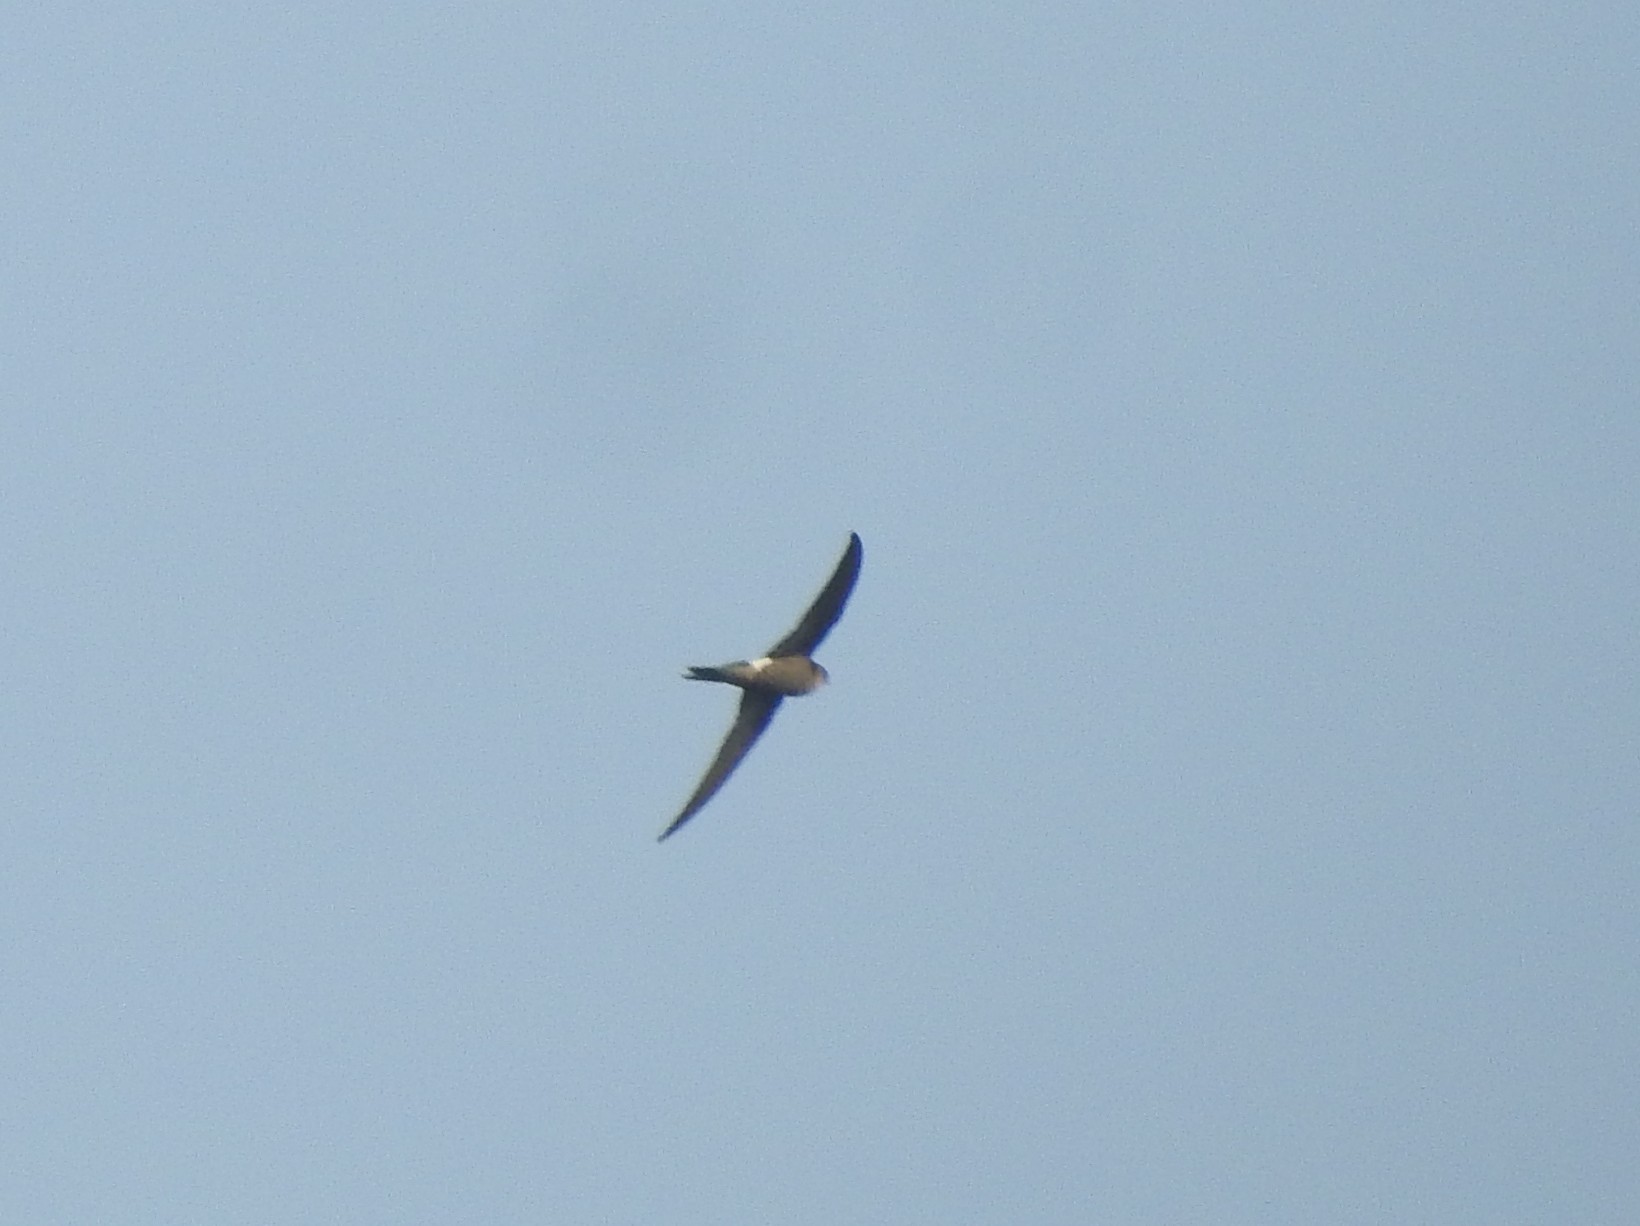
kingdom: Animalia
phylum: Chordata
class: Aves
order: Apodiformes
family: Apodidae
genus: Apus
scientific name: Apus leuconyx
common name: Blyth's swift
